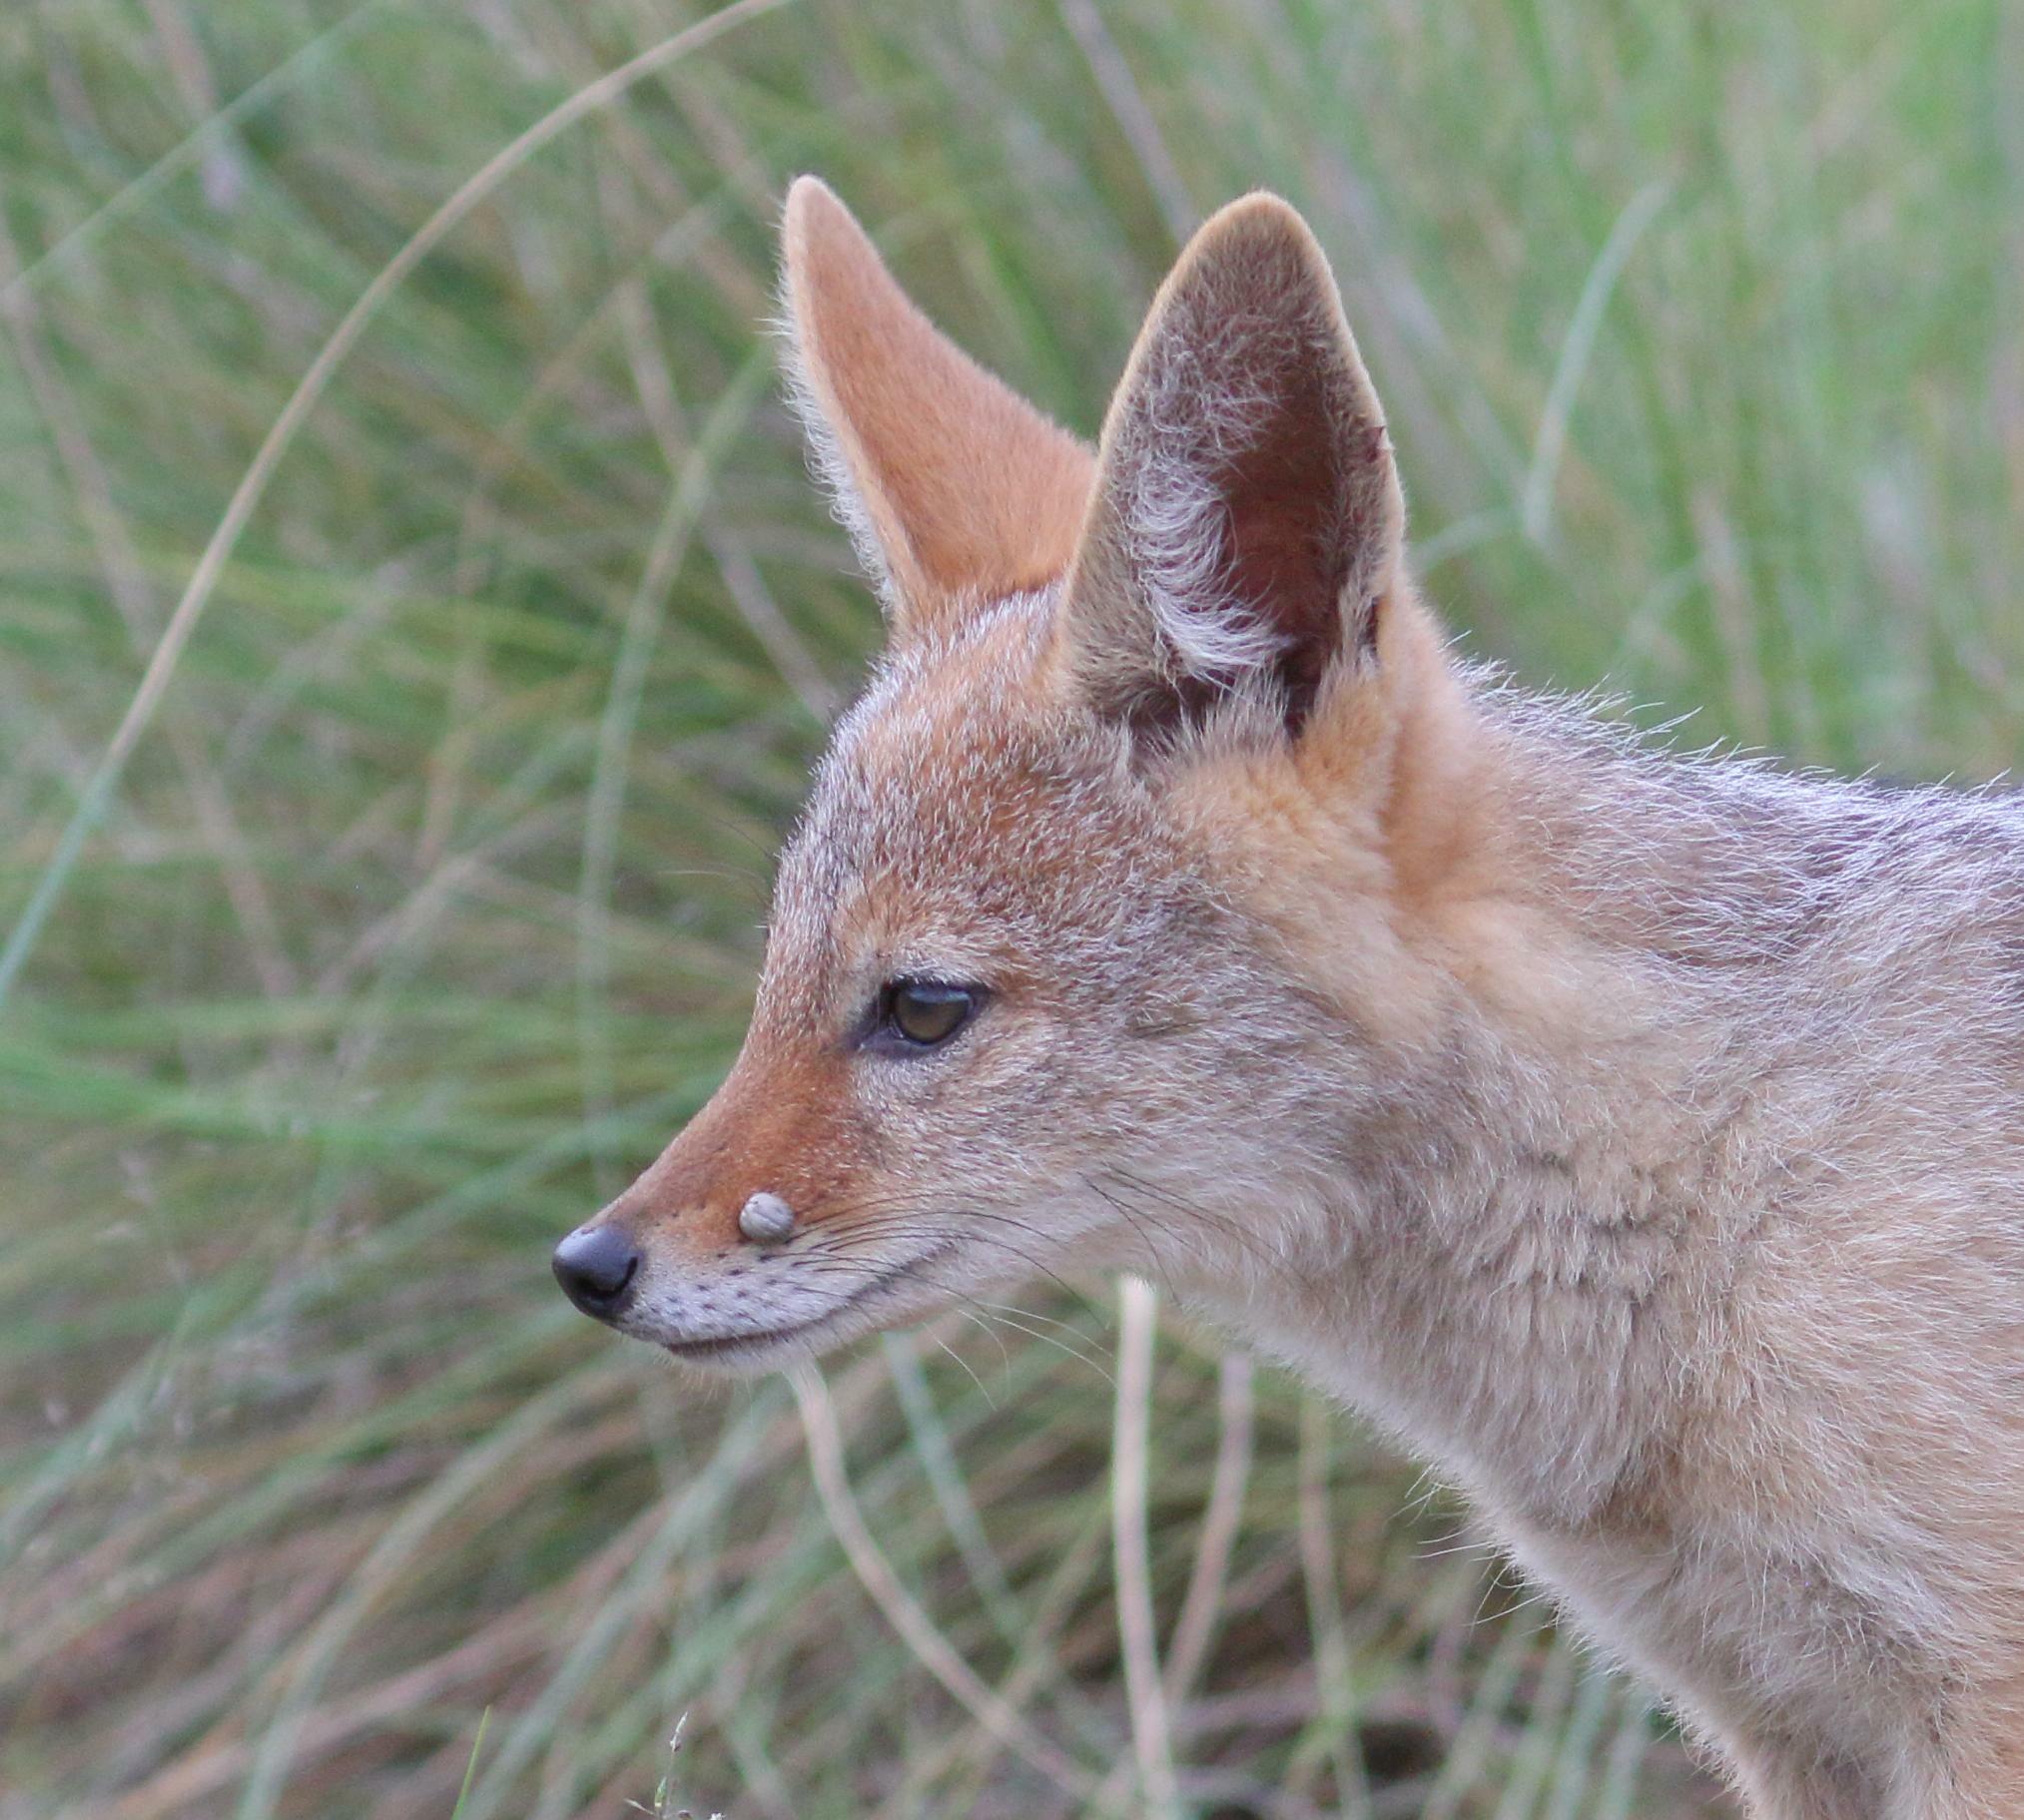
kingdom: Animalia
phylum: Chordata
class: Mammalia
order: Carnivora
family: Canidae
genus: Lupulella
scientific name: Lupulella
